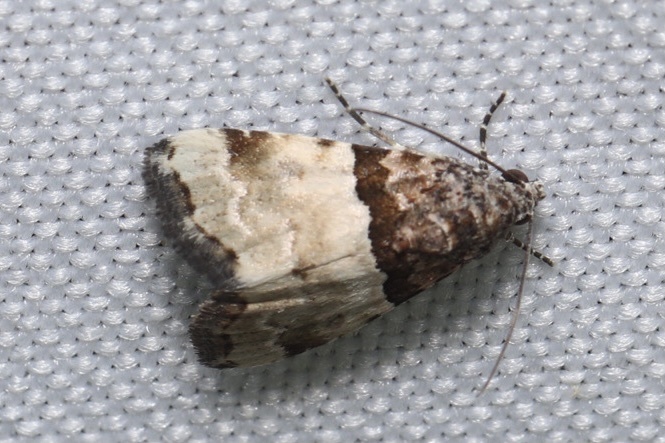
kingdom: Animalia
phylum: Arthropoda
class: Insecta
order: Lepidoptera
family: Noctuidae
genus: Cobubatha
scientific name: Cobubatha dividua
